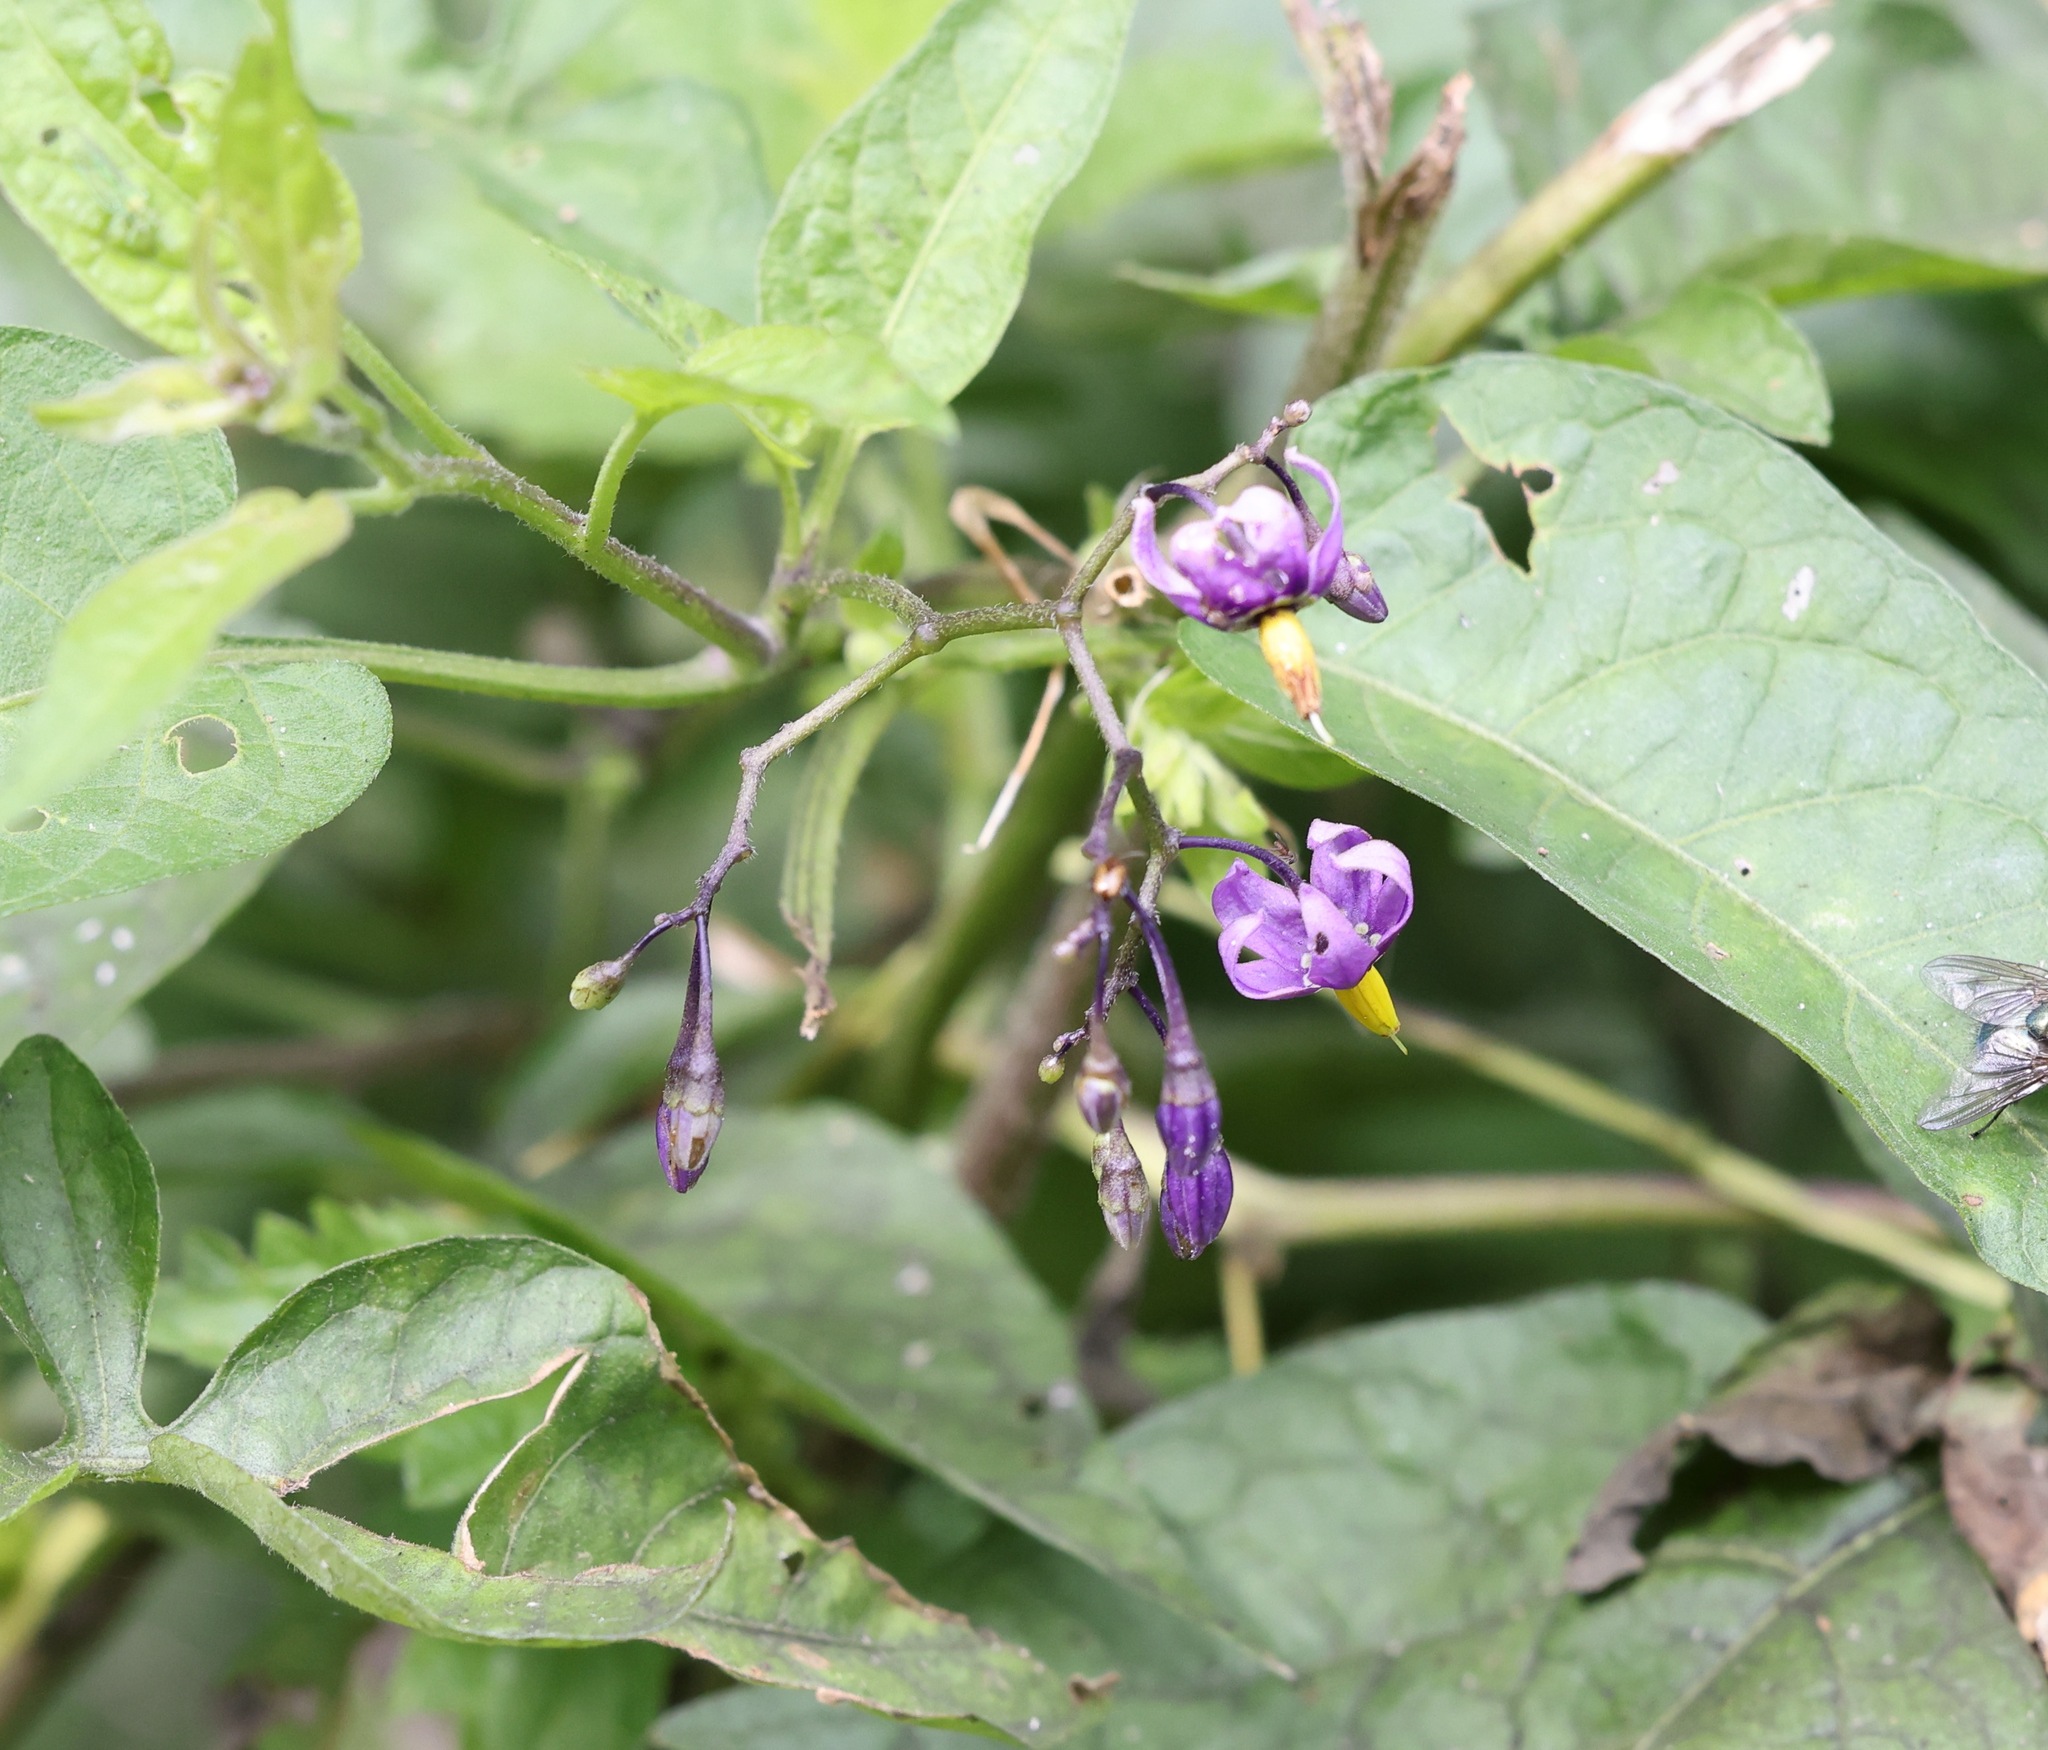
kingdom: Plantae
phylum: Tracheophyta
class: Magnoliopsida
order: Solanales
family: Solanaceae
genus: Solanum
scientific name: Solanum dulcamara
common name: Climbing nightshade
